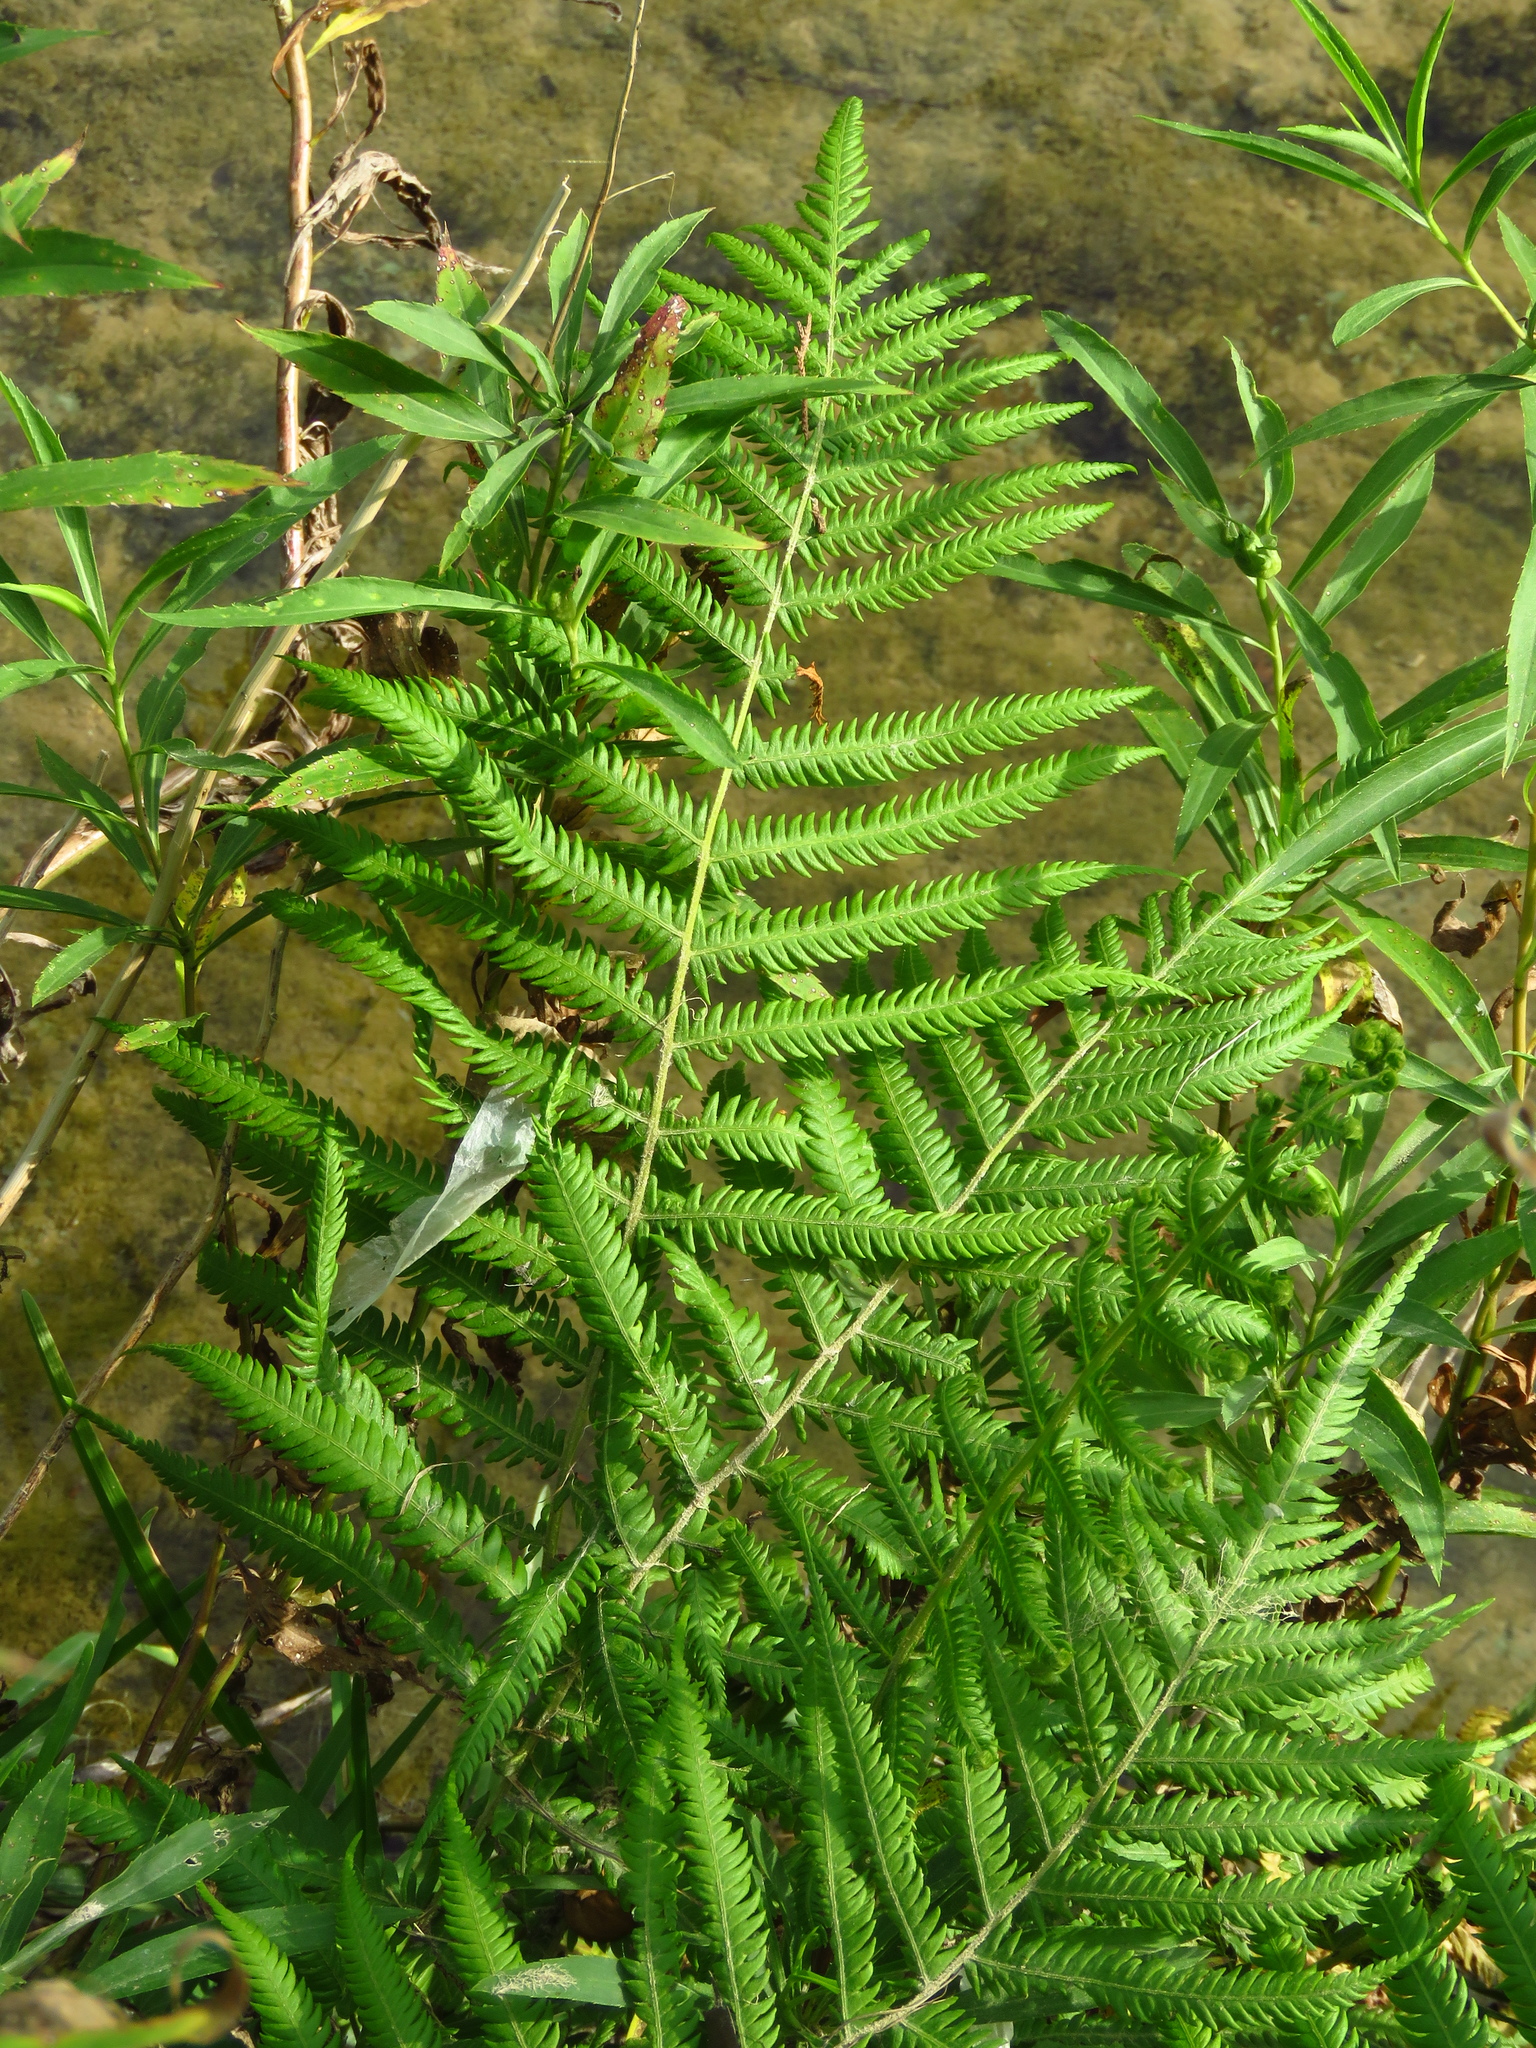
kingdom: Plantae
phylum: Tracheophyta
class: Polypodiopsida
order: Polypodiales
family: Thelypteridaceae
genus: Pelazoneuron
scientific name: Pelazoneuron kunthii
